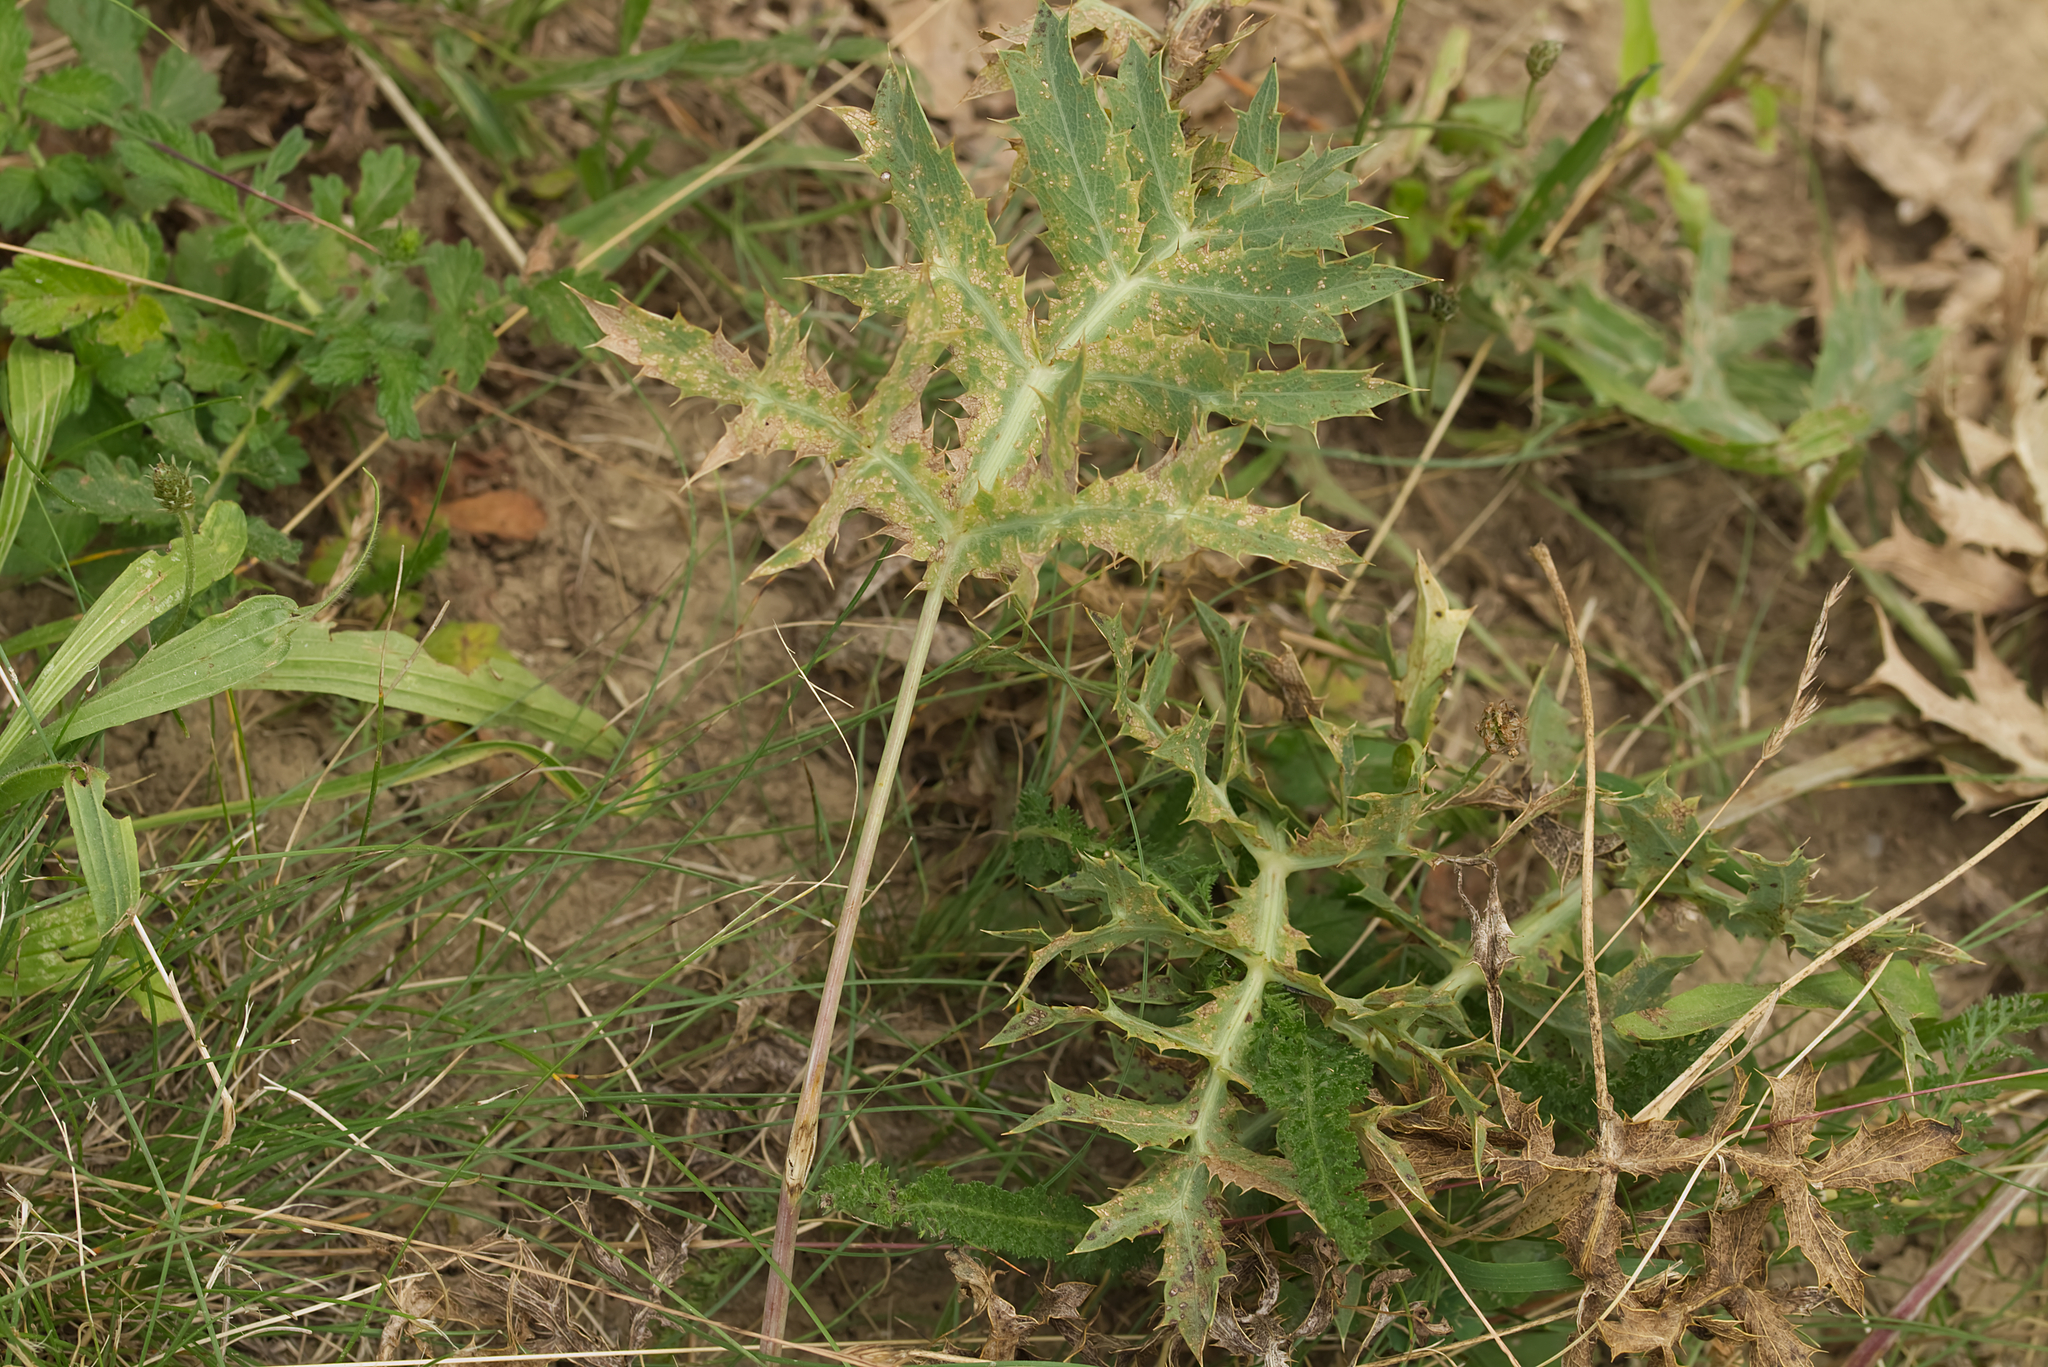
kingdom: Plantae
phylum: Tracheophyta
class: Magnoliopsida
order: Apiales
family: Apiaceae
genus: Eryngium
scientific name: Eryngium campestre
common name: Field eryngo
